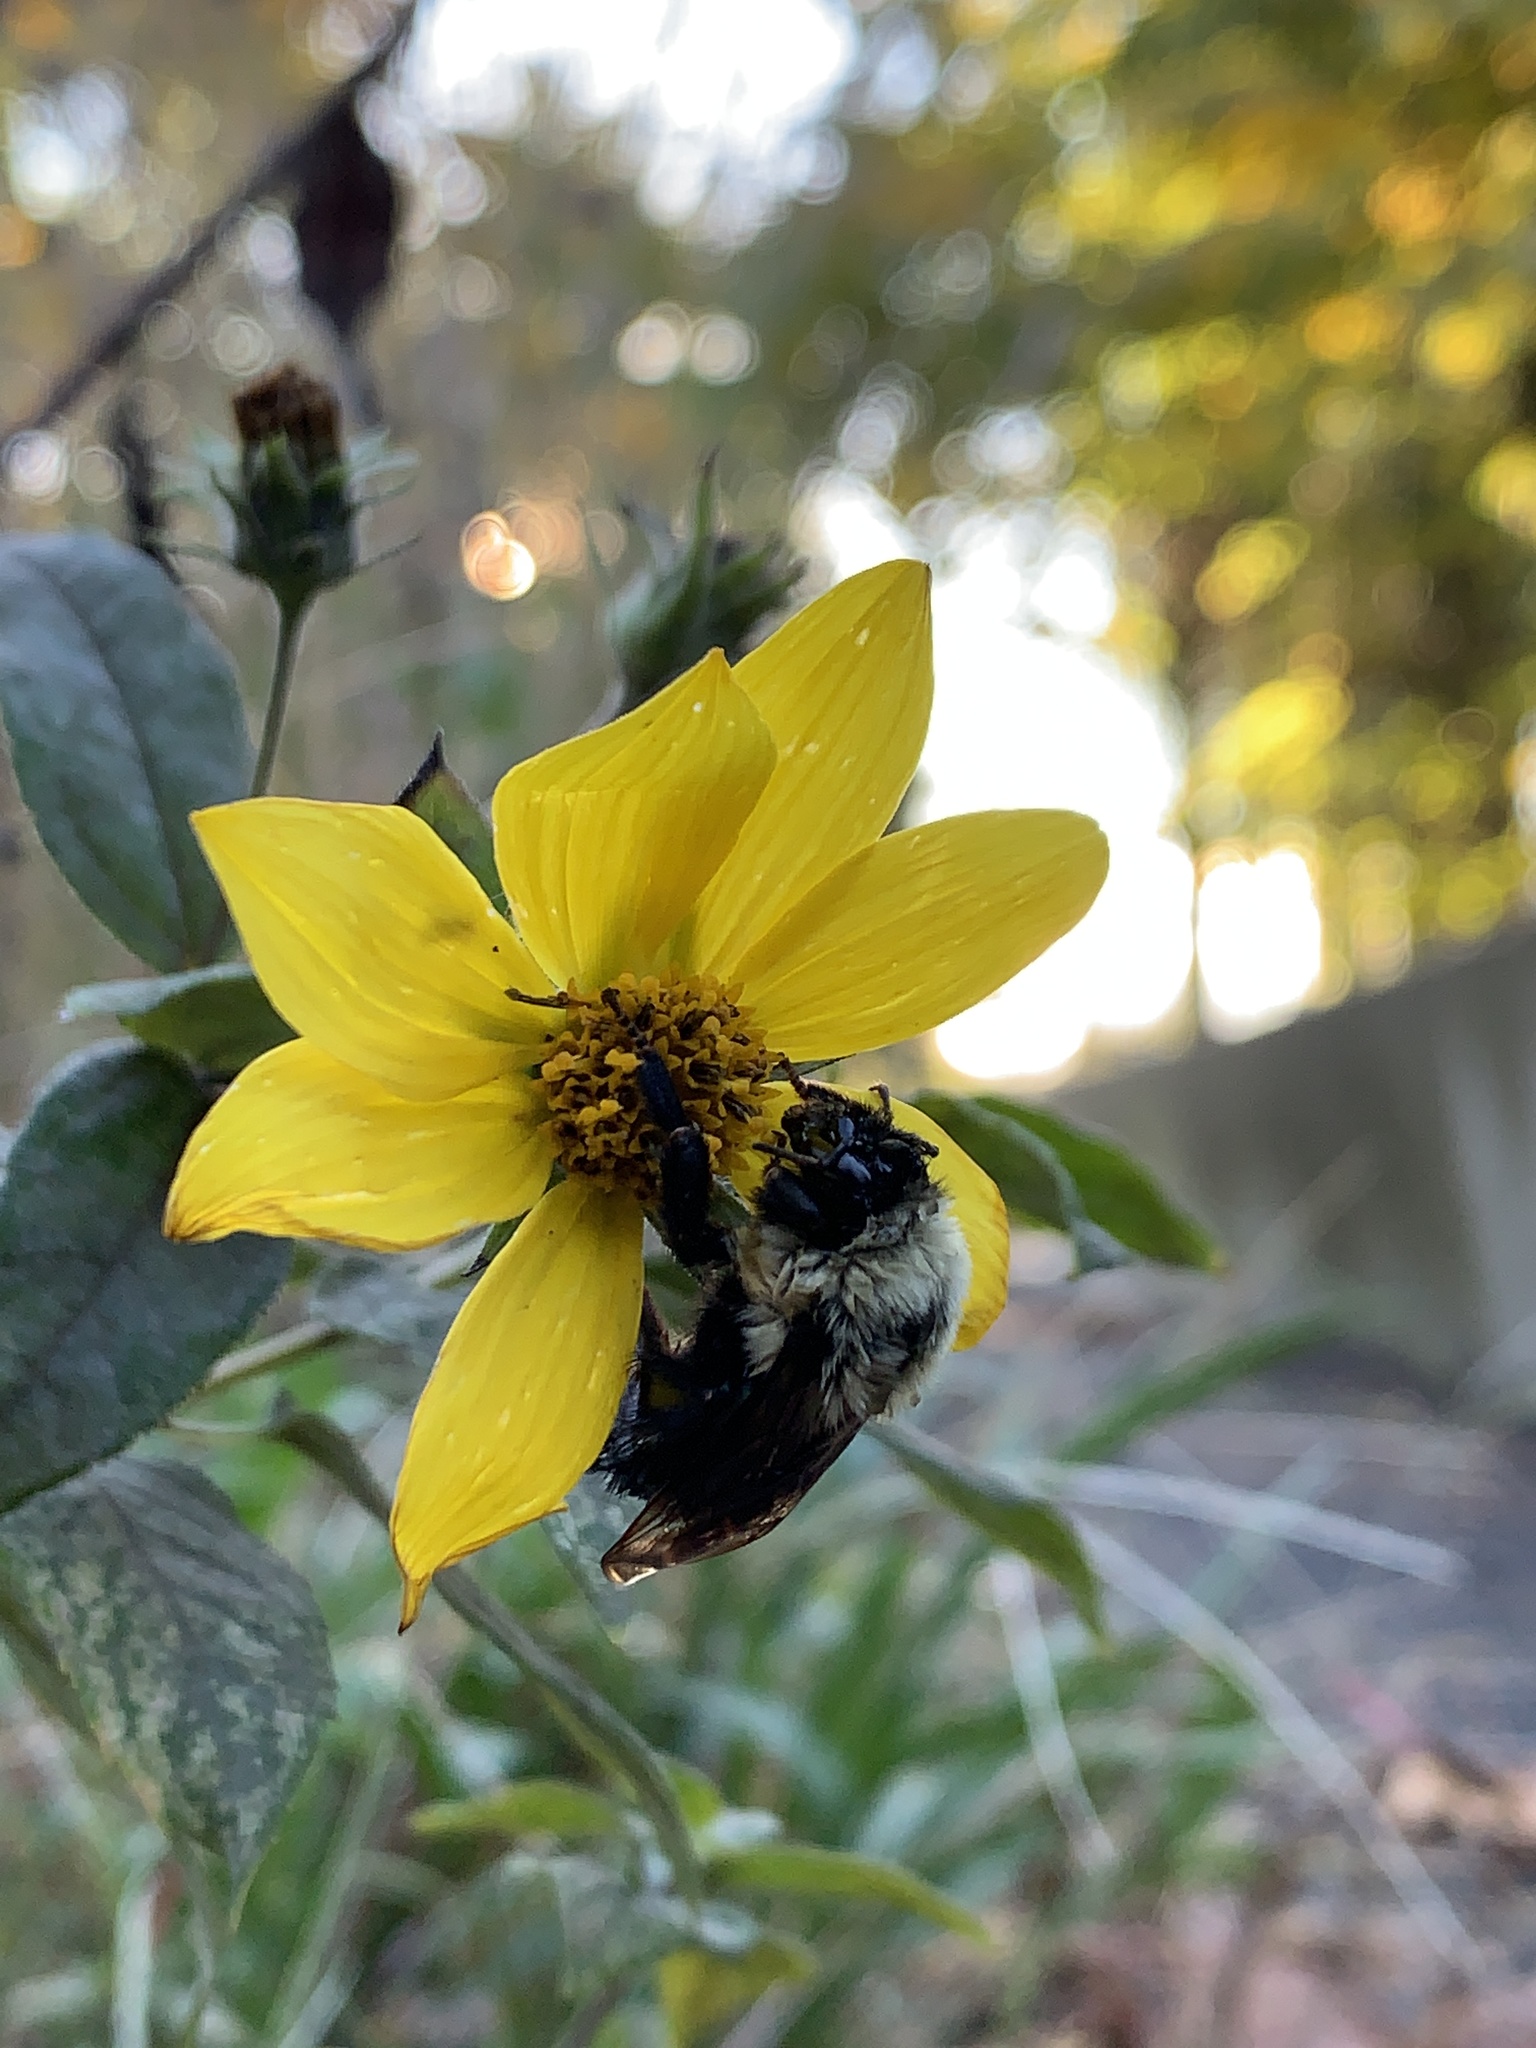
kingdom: Animalia
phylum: Arthropoda
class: Insecta
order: Hymenoptera
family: Apidae
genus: Bombus
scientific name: Bombus impatiens
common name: Common eastern bumble bee
